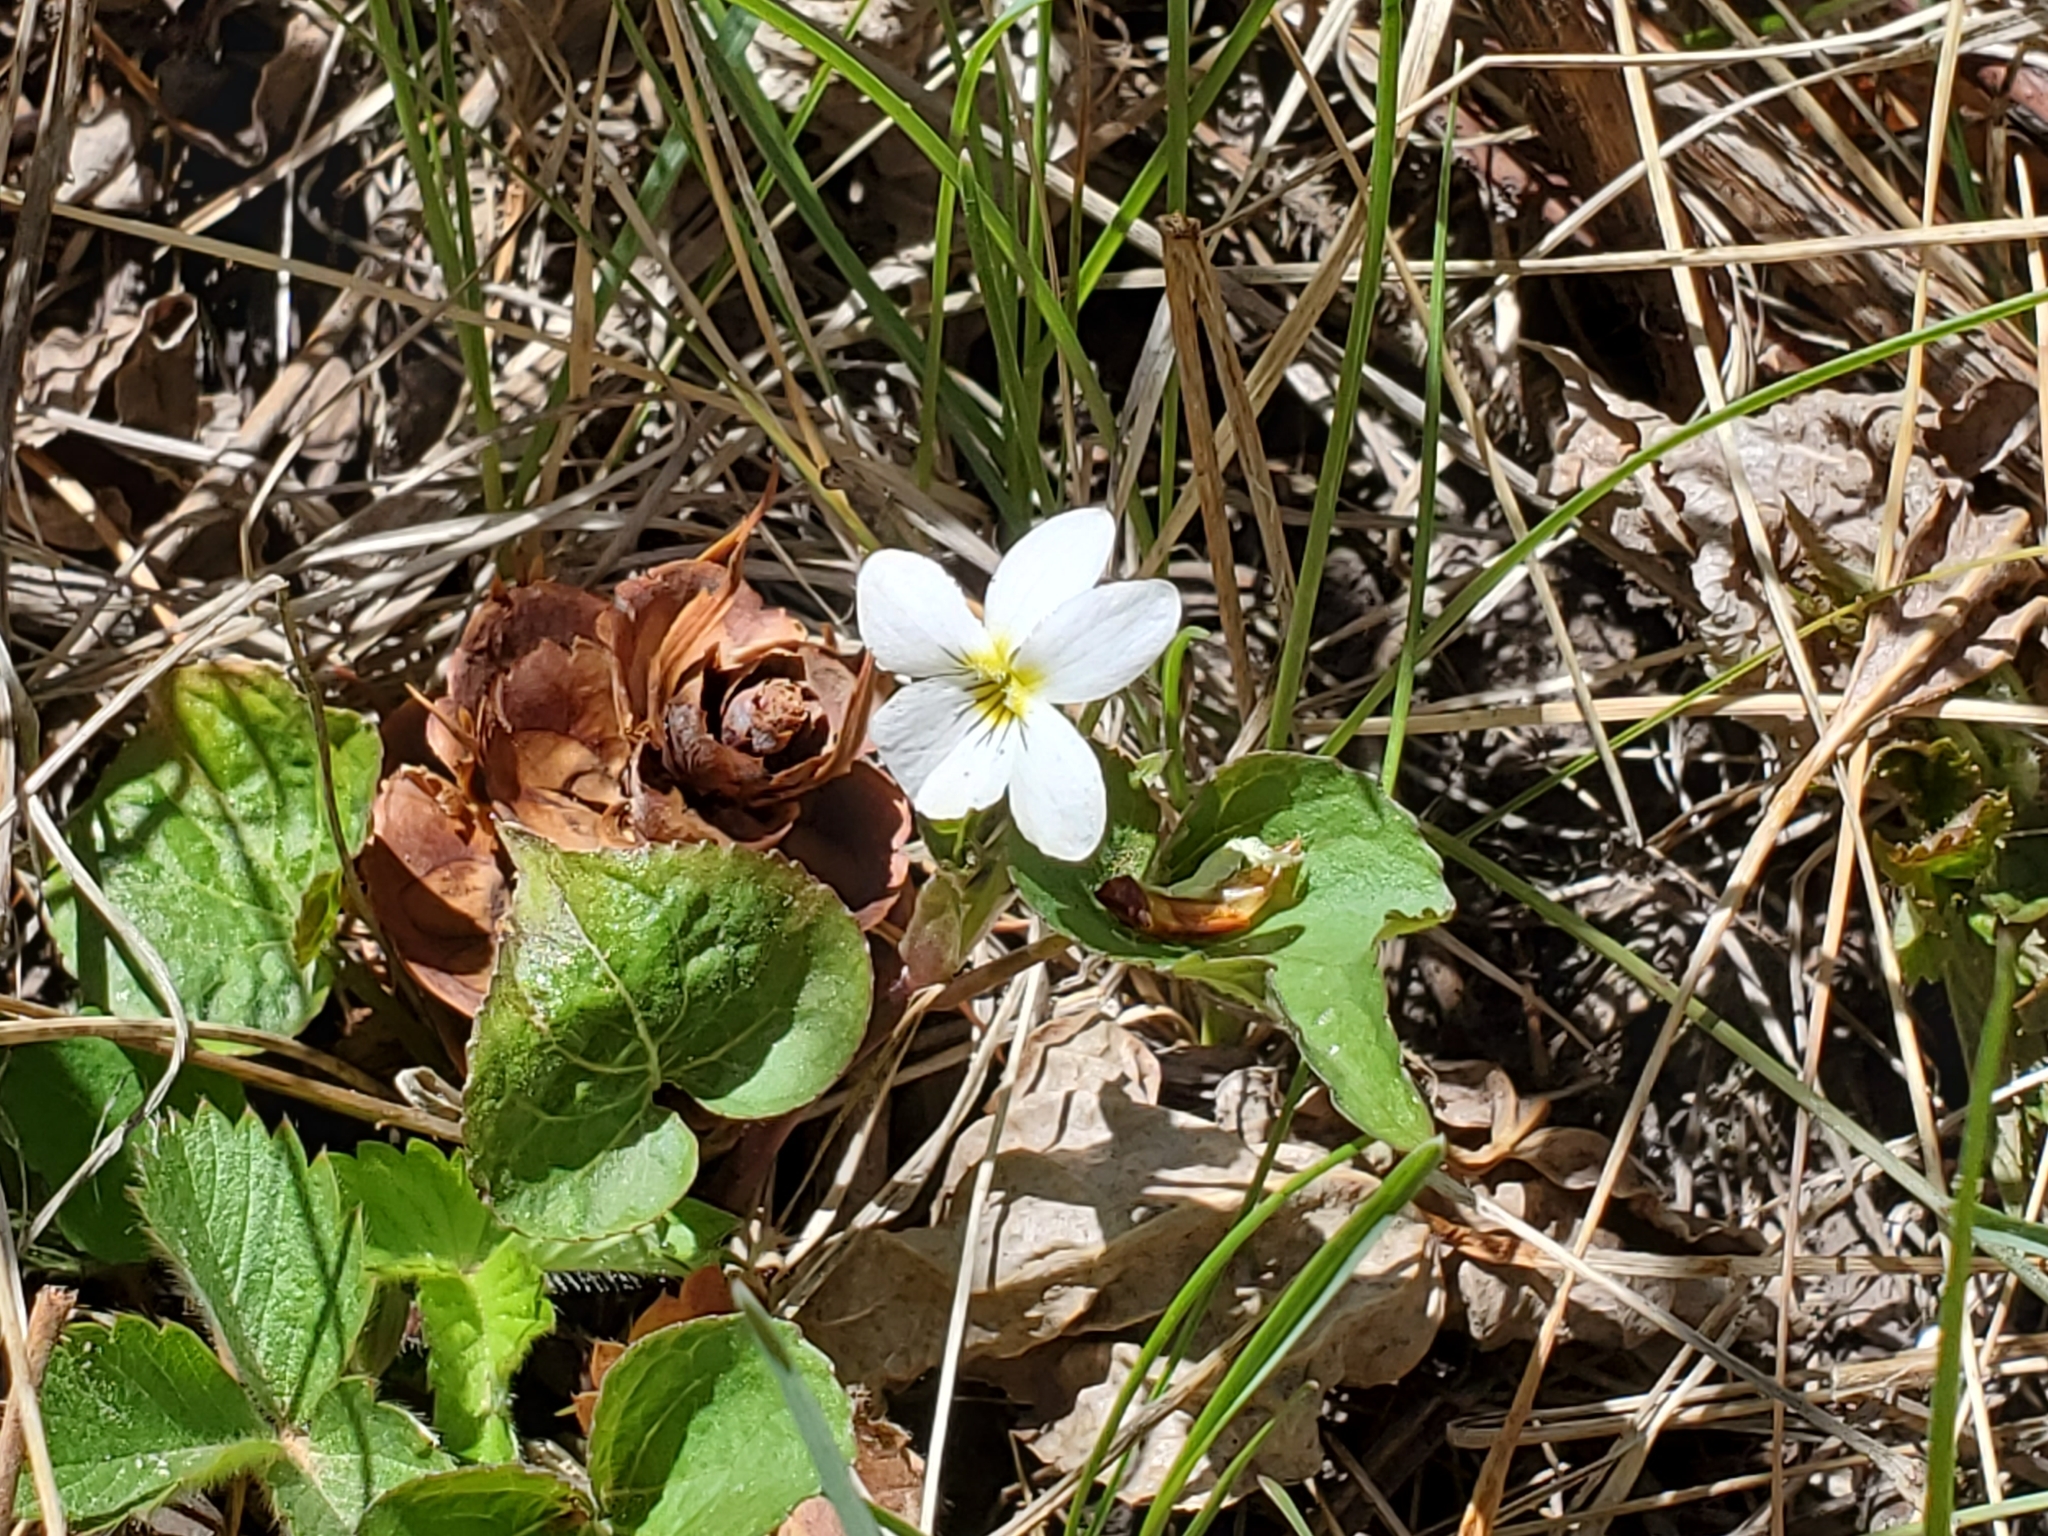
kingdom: Plantae
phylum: Tracheophyta
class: Magnoliopsida
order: Malpighiales
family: Violaceae
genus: Viola
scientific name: Viola canadensis
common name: Canada violet
